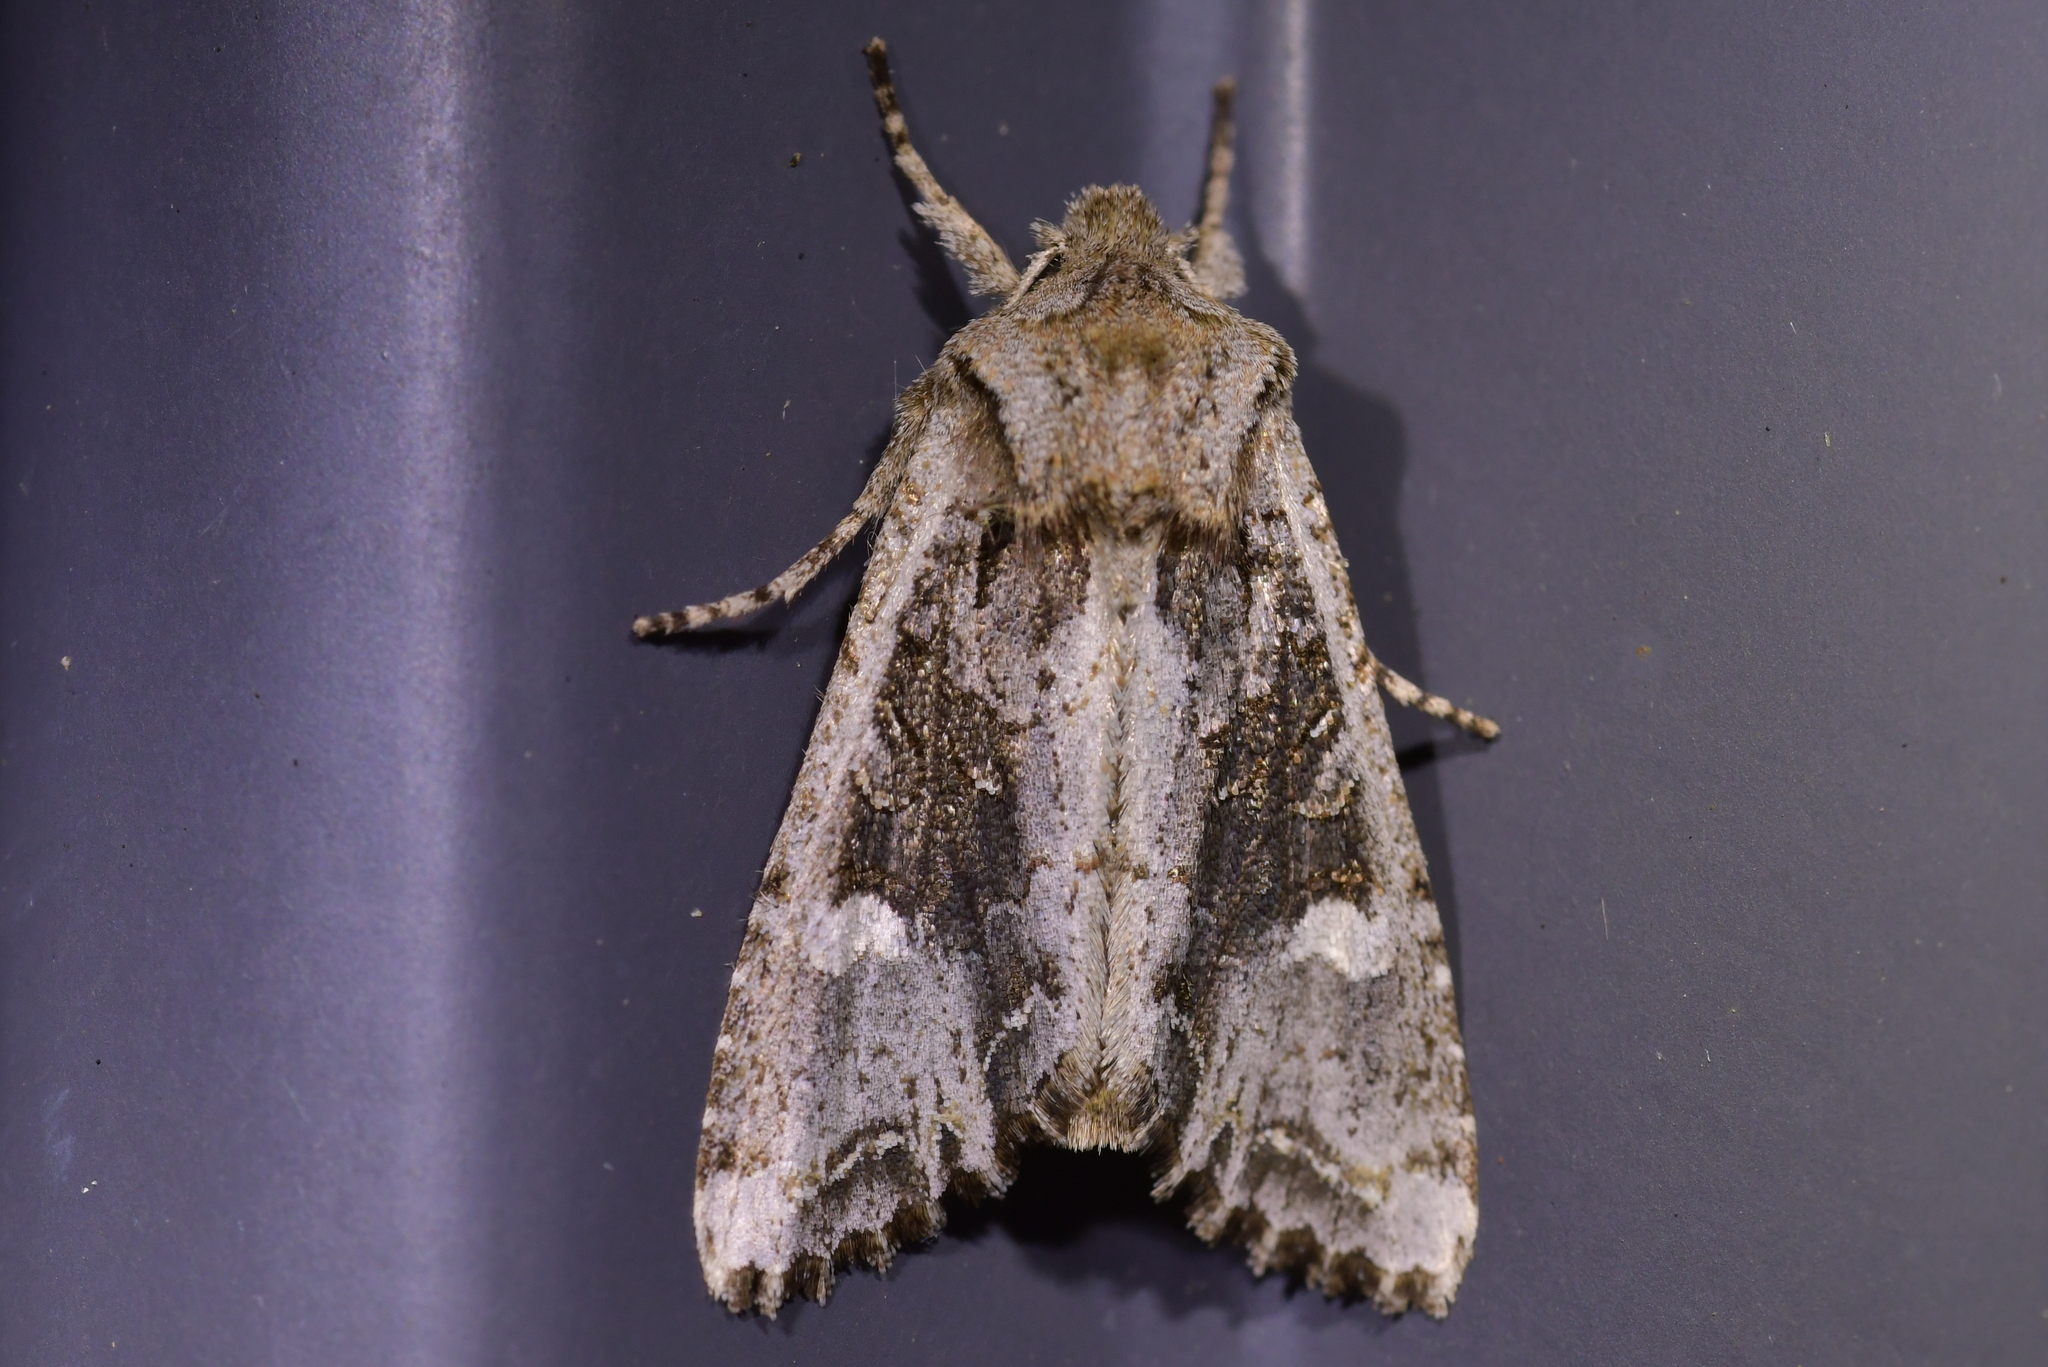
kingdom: Animalia
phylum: Arthropoda
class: Insecta
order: Lepidoptera
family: Noctuidae
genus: Ichneutica
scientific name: Ichneutica
